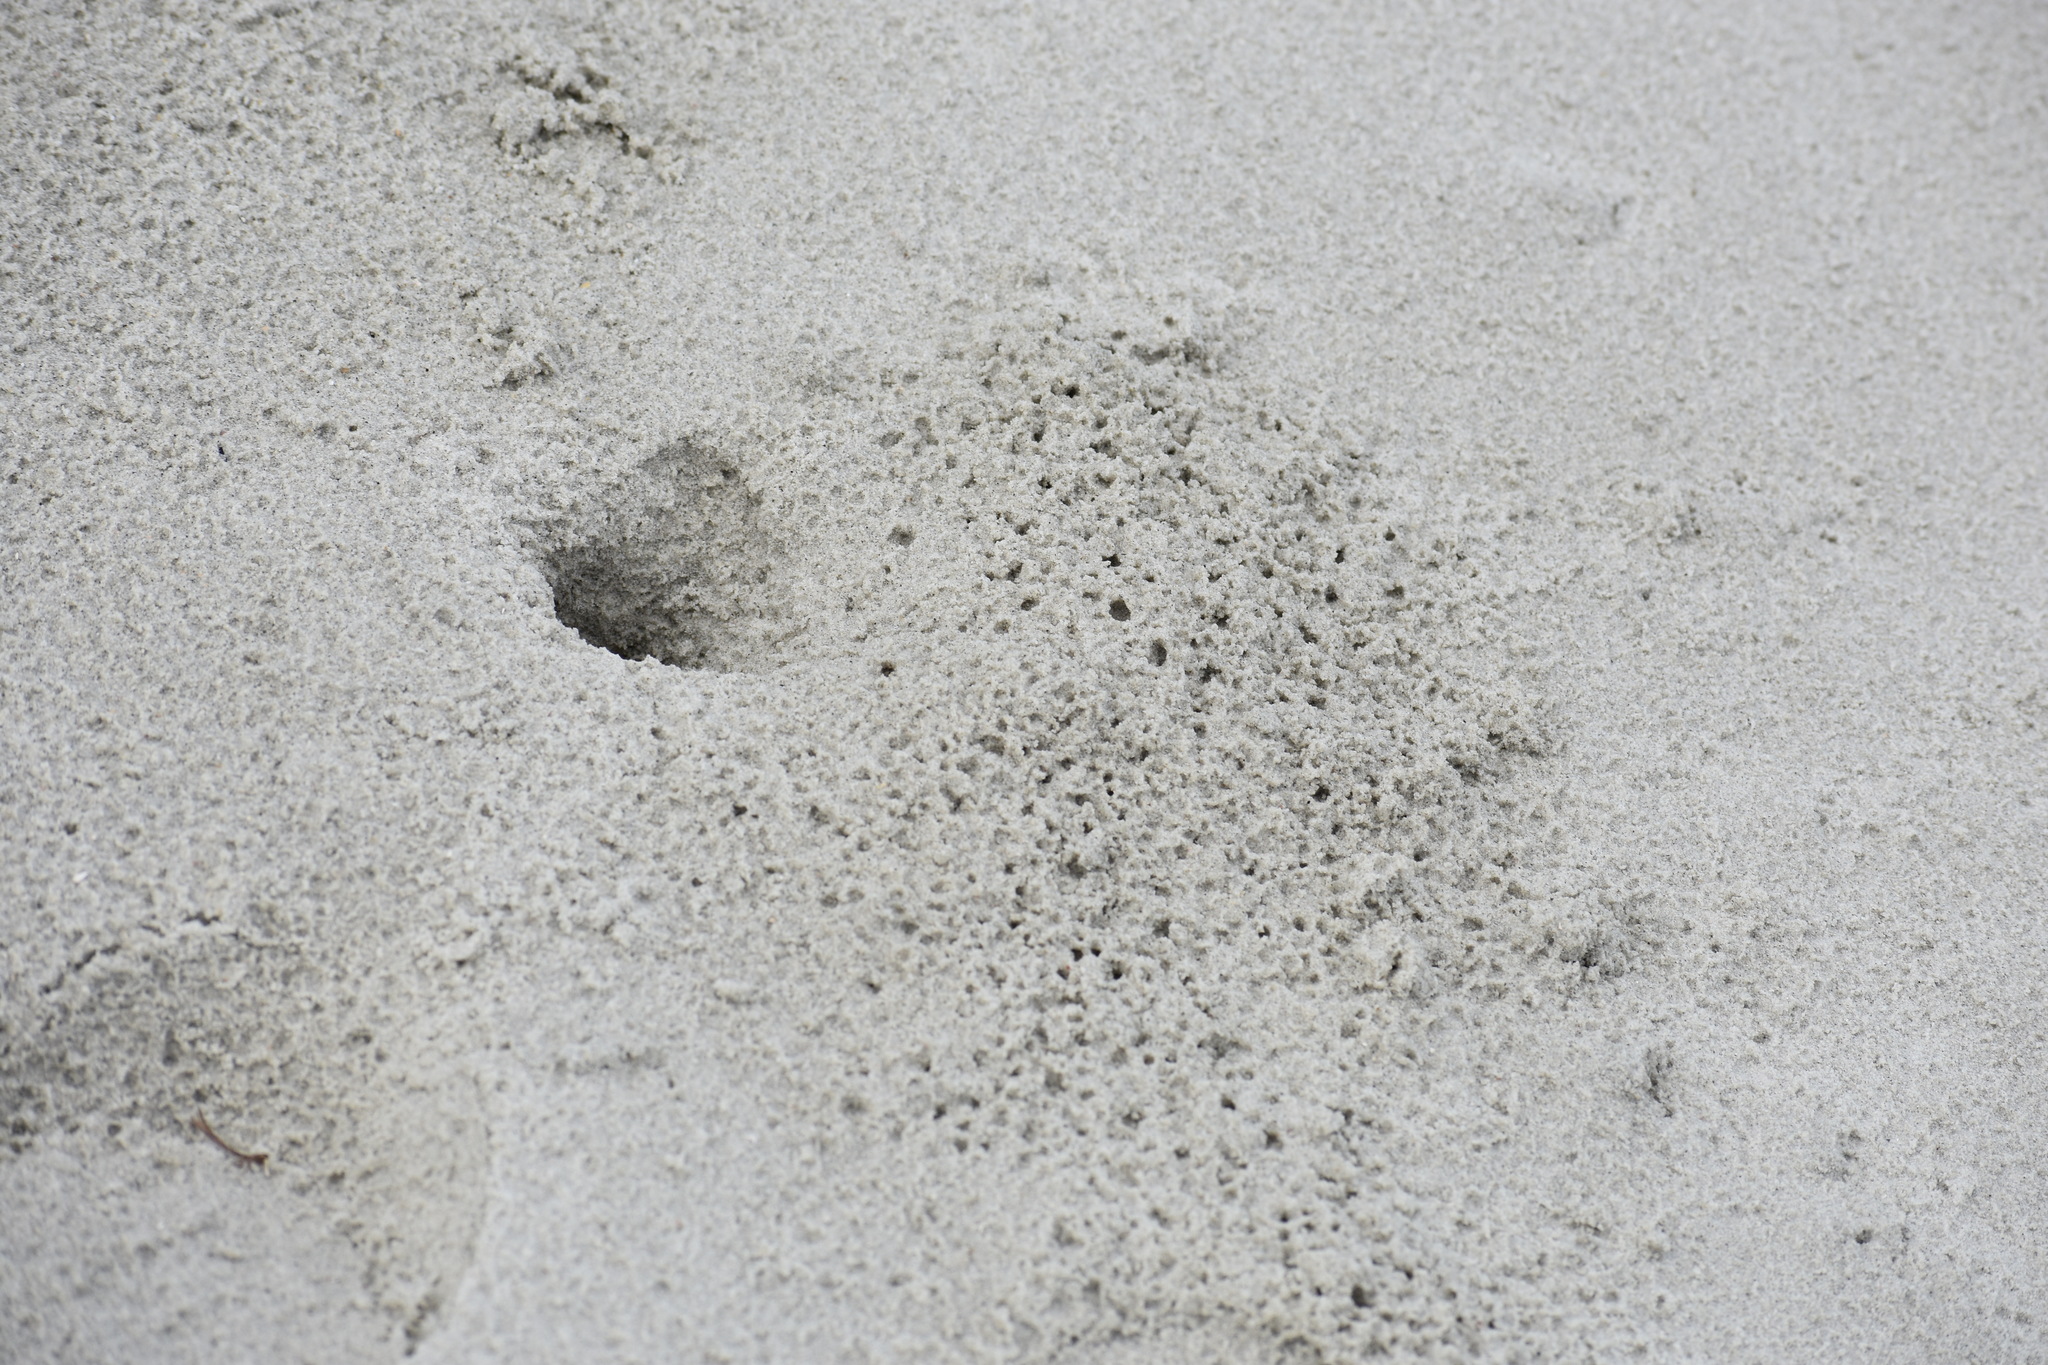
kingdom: Animalia
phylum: Arthropoda
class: Malacostraca
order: Decapoda
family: Ocypodidae
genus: Ocypode
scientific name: Ocypode quadrata
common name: Ghost crab
